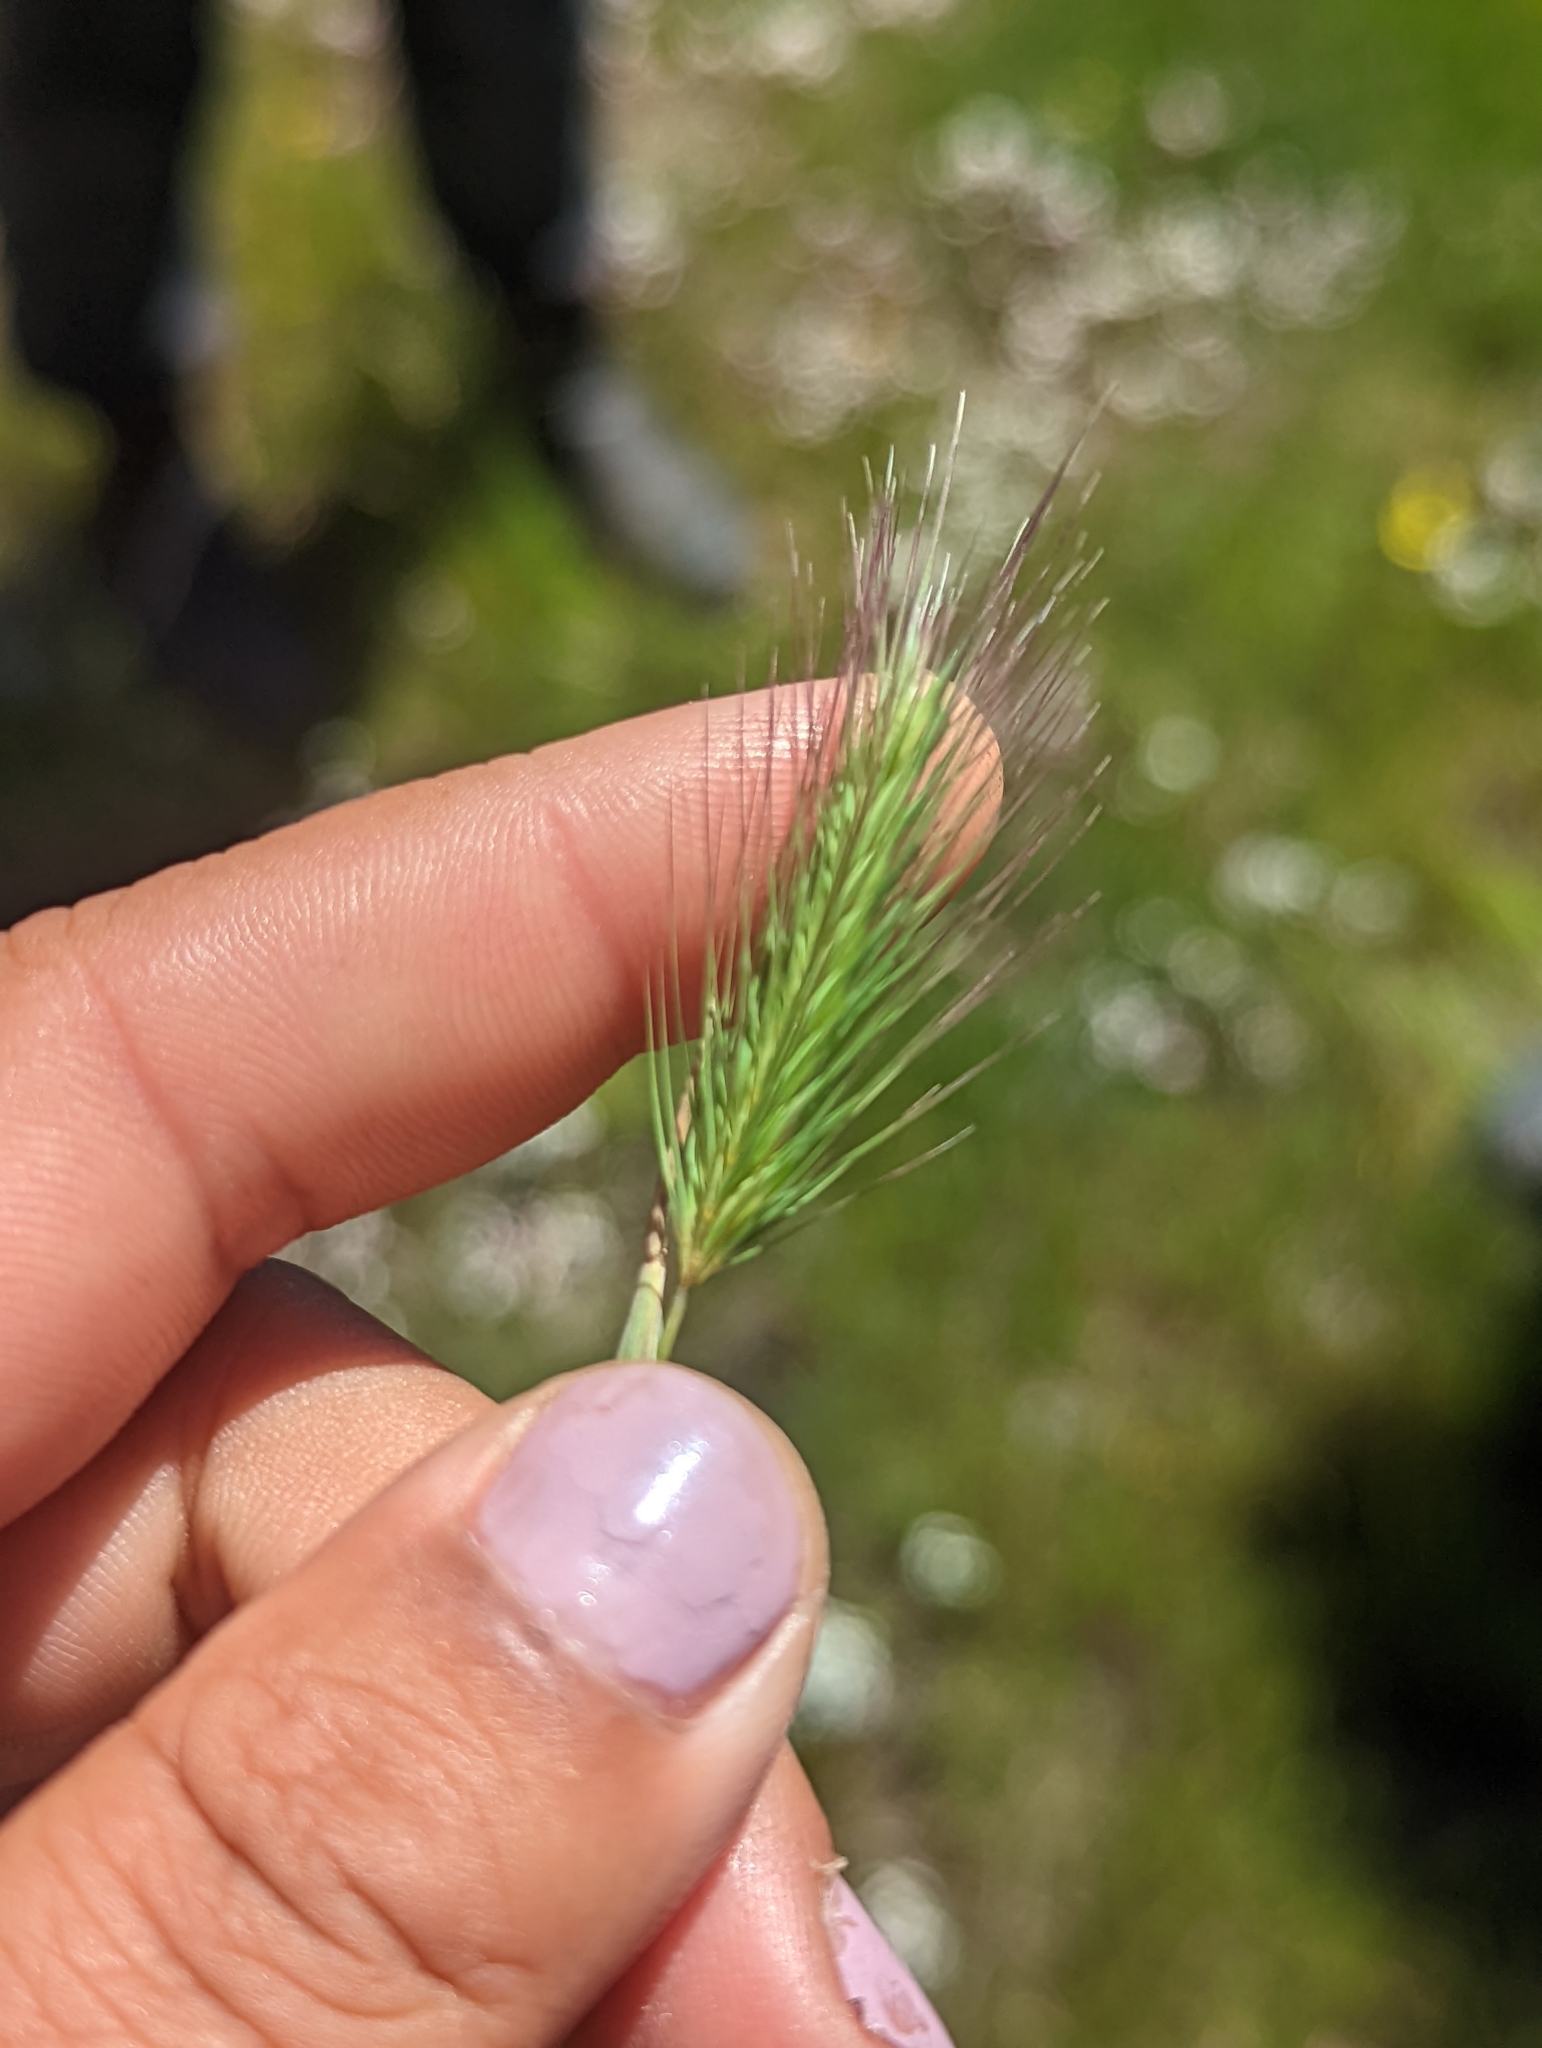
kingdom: Plantae
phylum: Tracheophyta
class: Liliopsida
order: Poales
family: Poaceae
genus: Hordeum
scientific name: Hordeum marinum
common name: Sea barley
